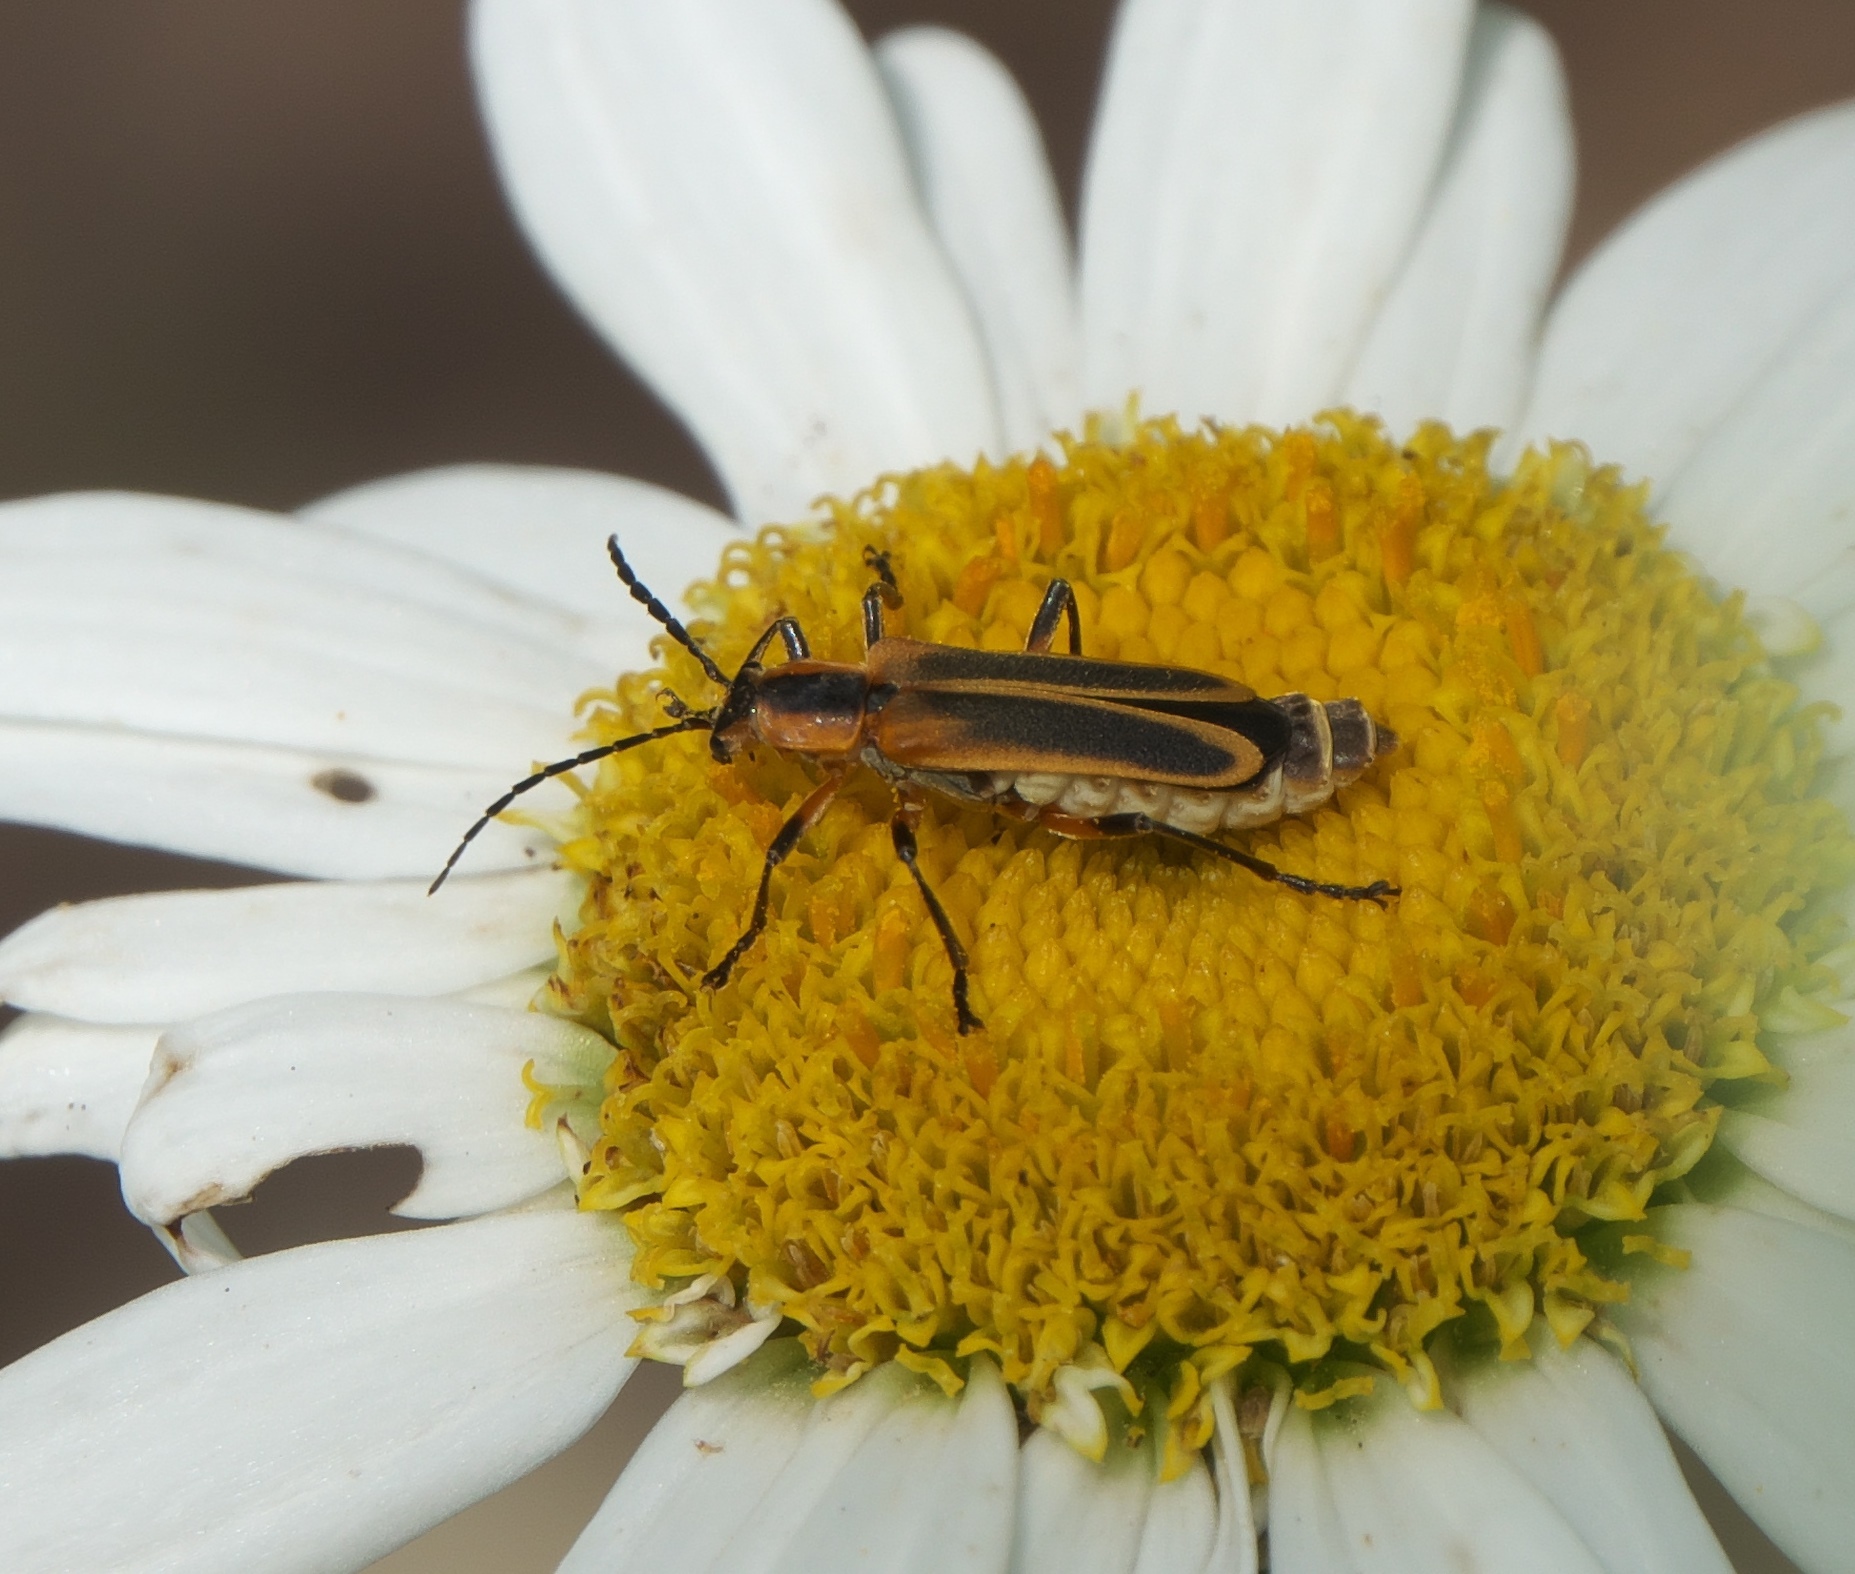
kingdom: Animalia
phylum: Arthropoda
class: Insecta
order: Coleoptera
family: Cantharidae
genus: Chauliognathus
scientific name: Chauliognathus marginatus
